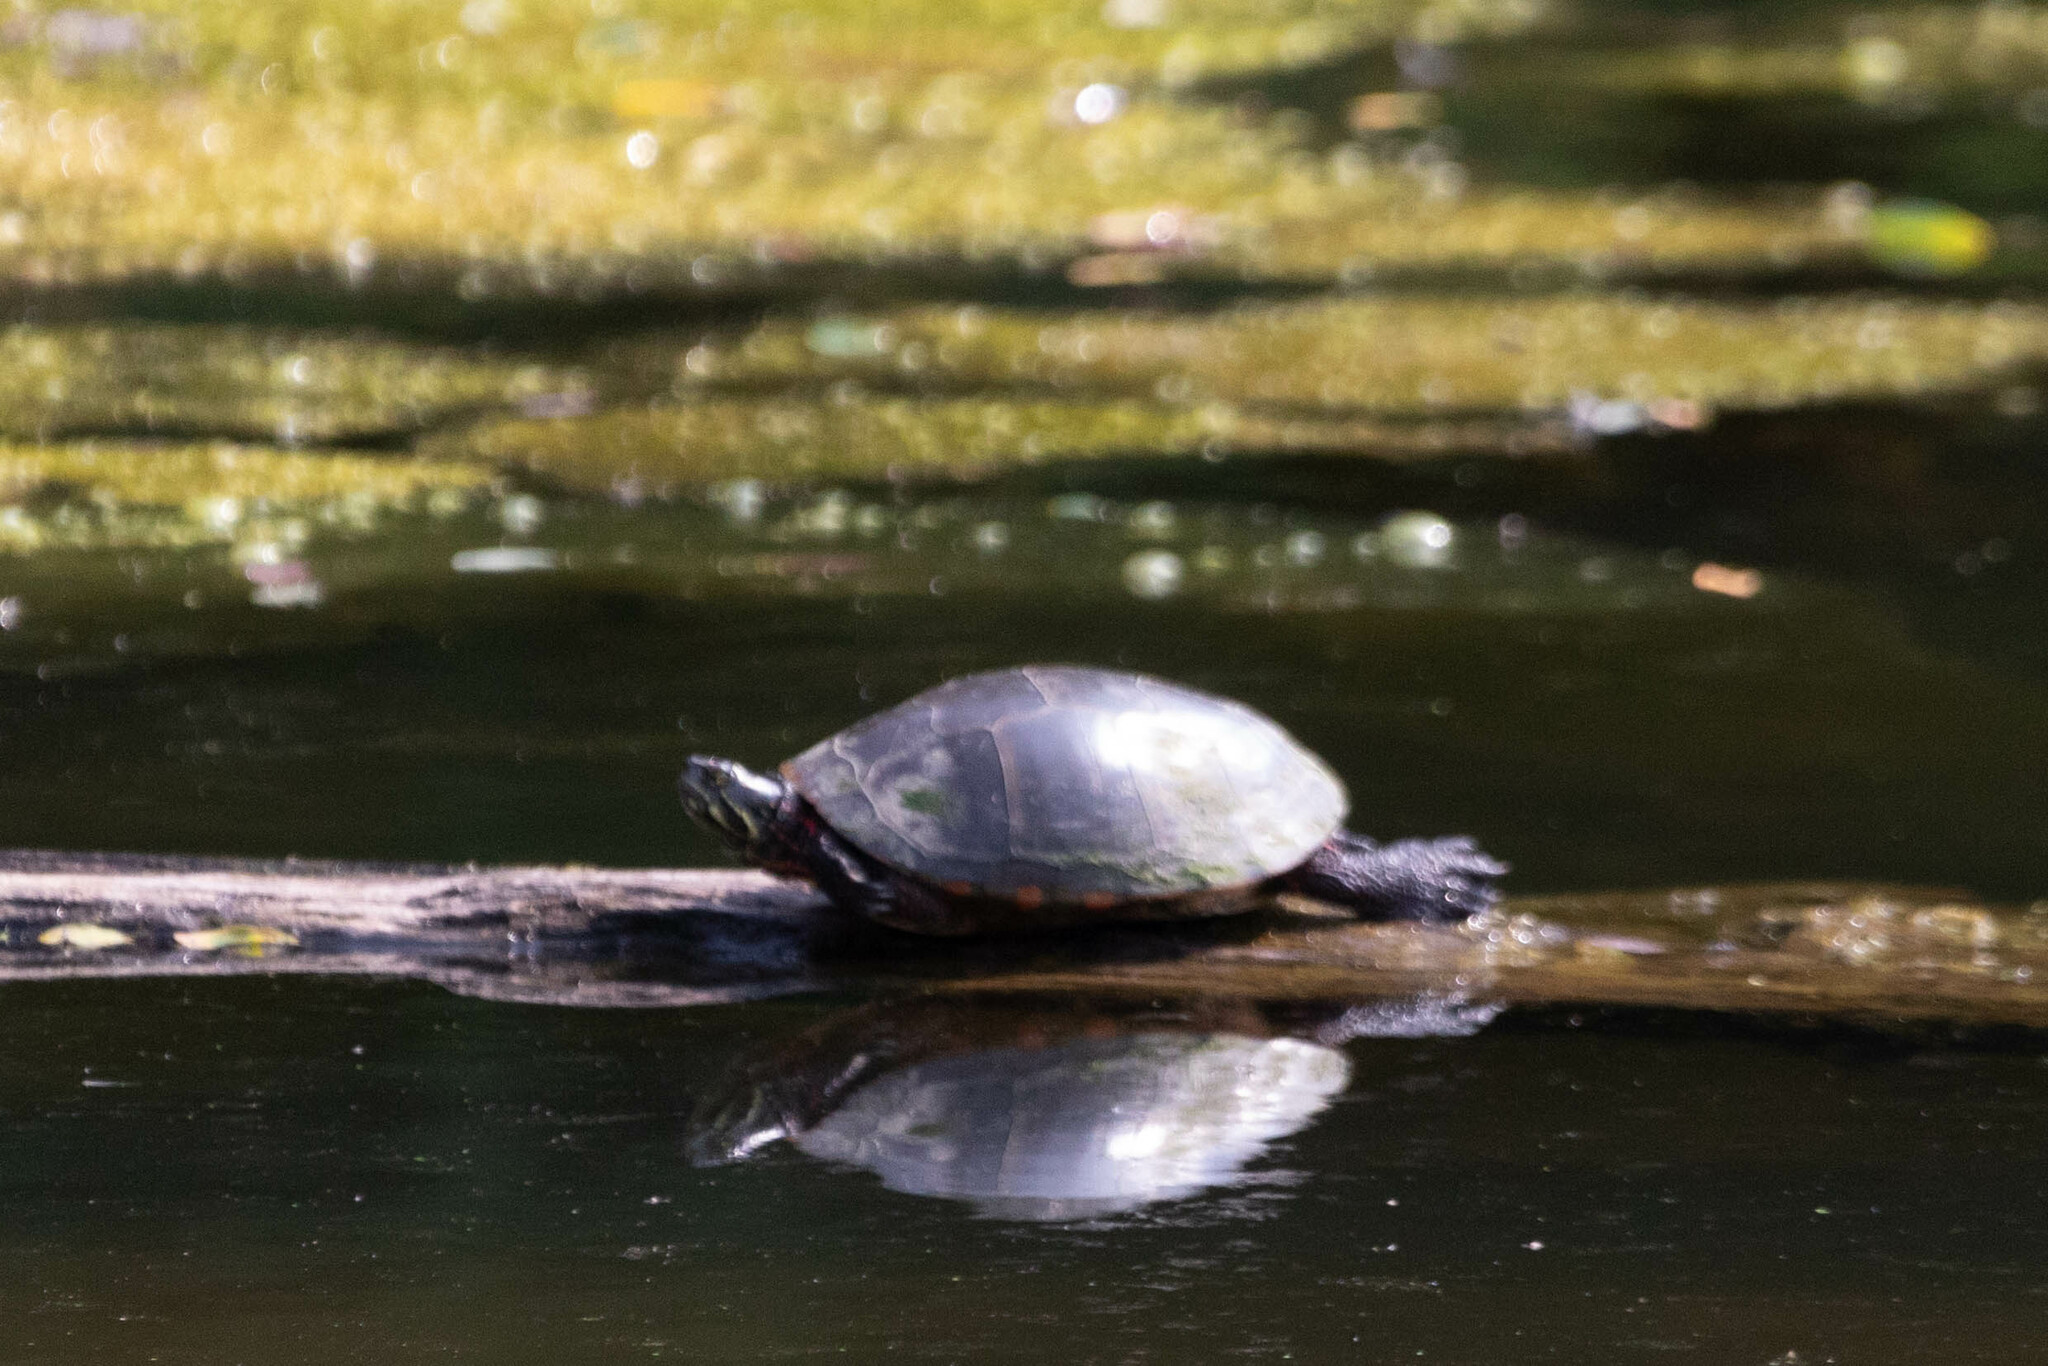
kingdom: Animalia
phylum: Chordata
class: Testudines
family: Emydidae
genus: Chrysemys
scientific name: Chrysemys picta
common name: Painted turtle
